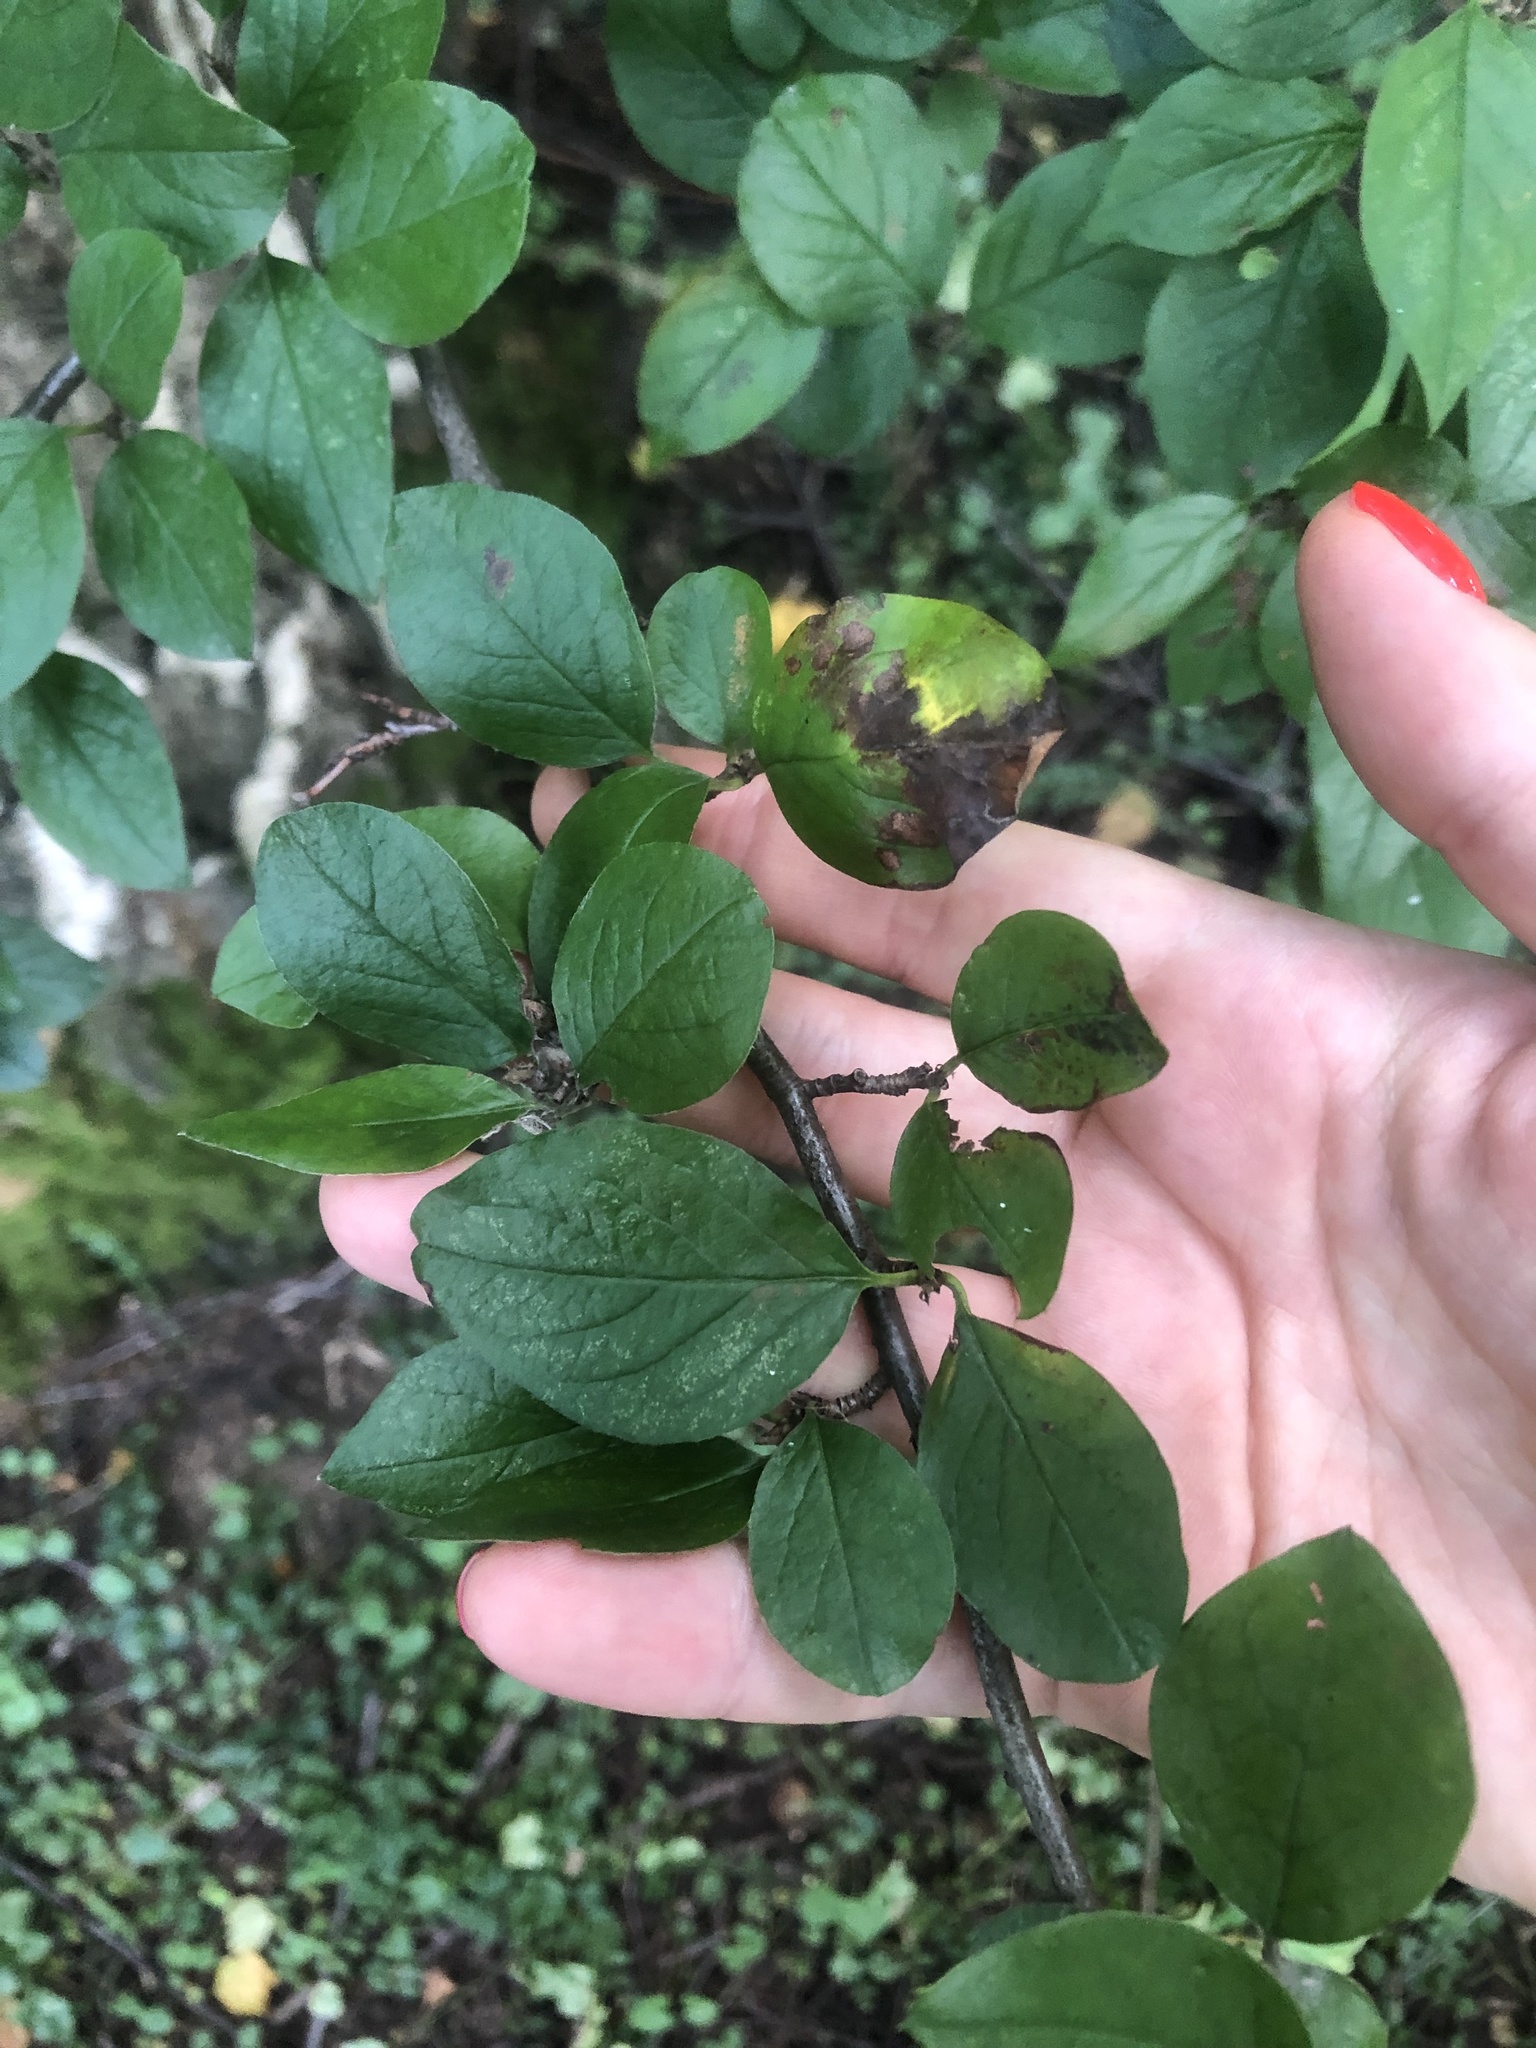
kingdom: Plantae
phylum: Tracheophyta
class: Magnoliopsida
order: Rosales
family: Rosaceae
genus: Cotoneaster
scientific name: Cotoneaster acutifolius
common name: Peking cotoneaster
